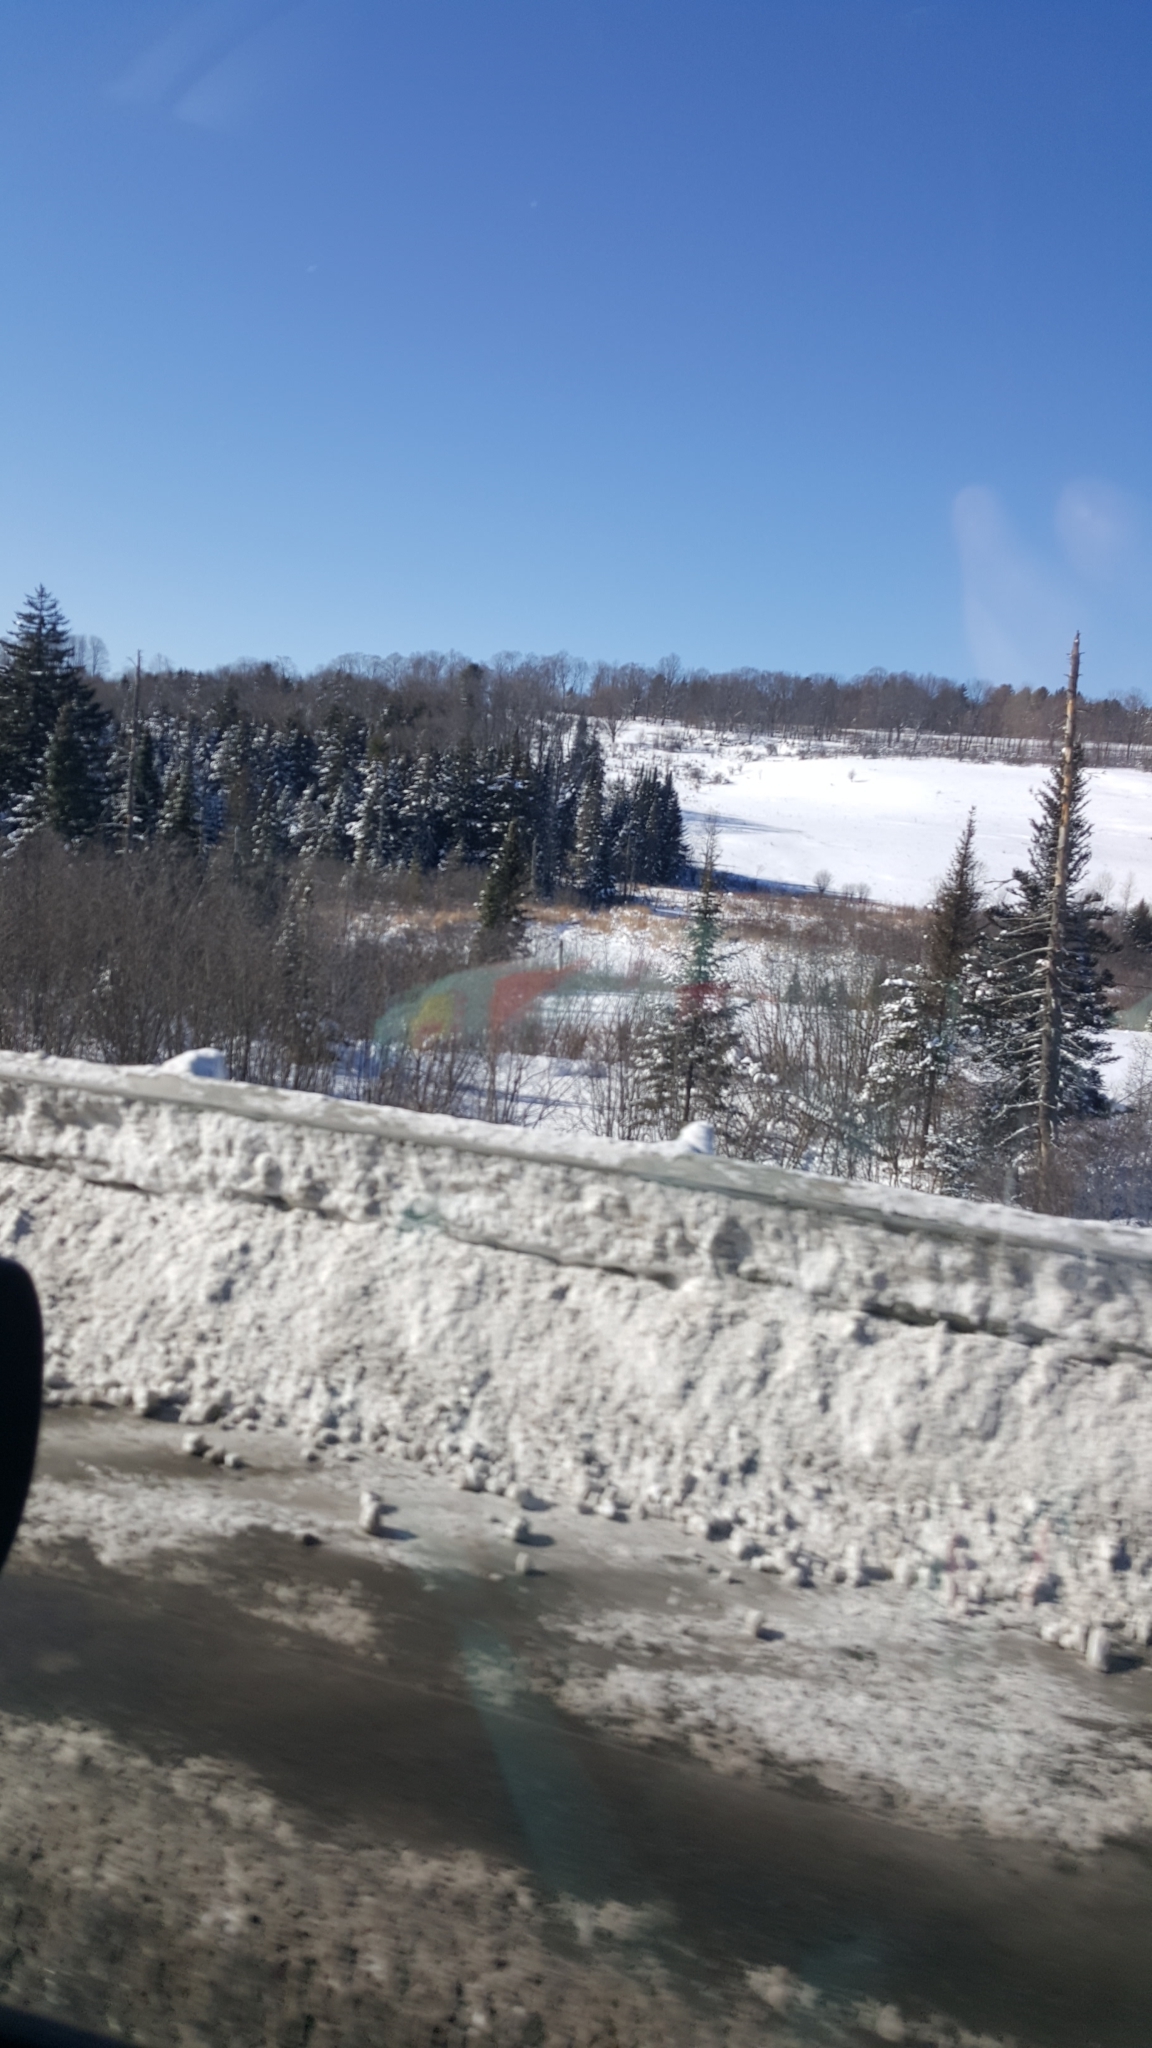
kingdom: Plantae
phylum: Tracheophyta
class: Pinopsida
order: Pinales
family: Pinaceae
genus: Abies
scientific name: Abies balsamea
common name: Balsam fir
